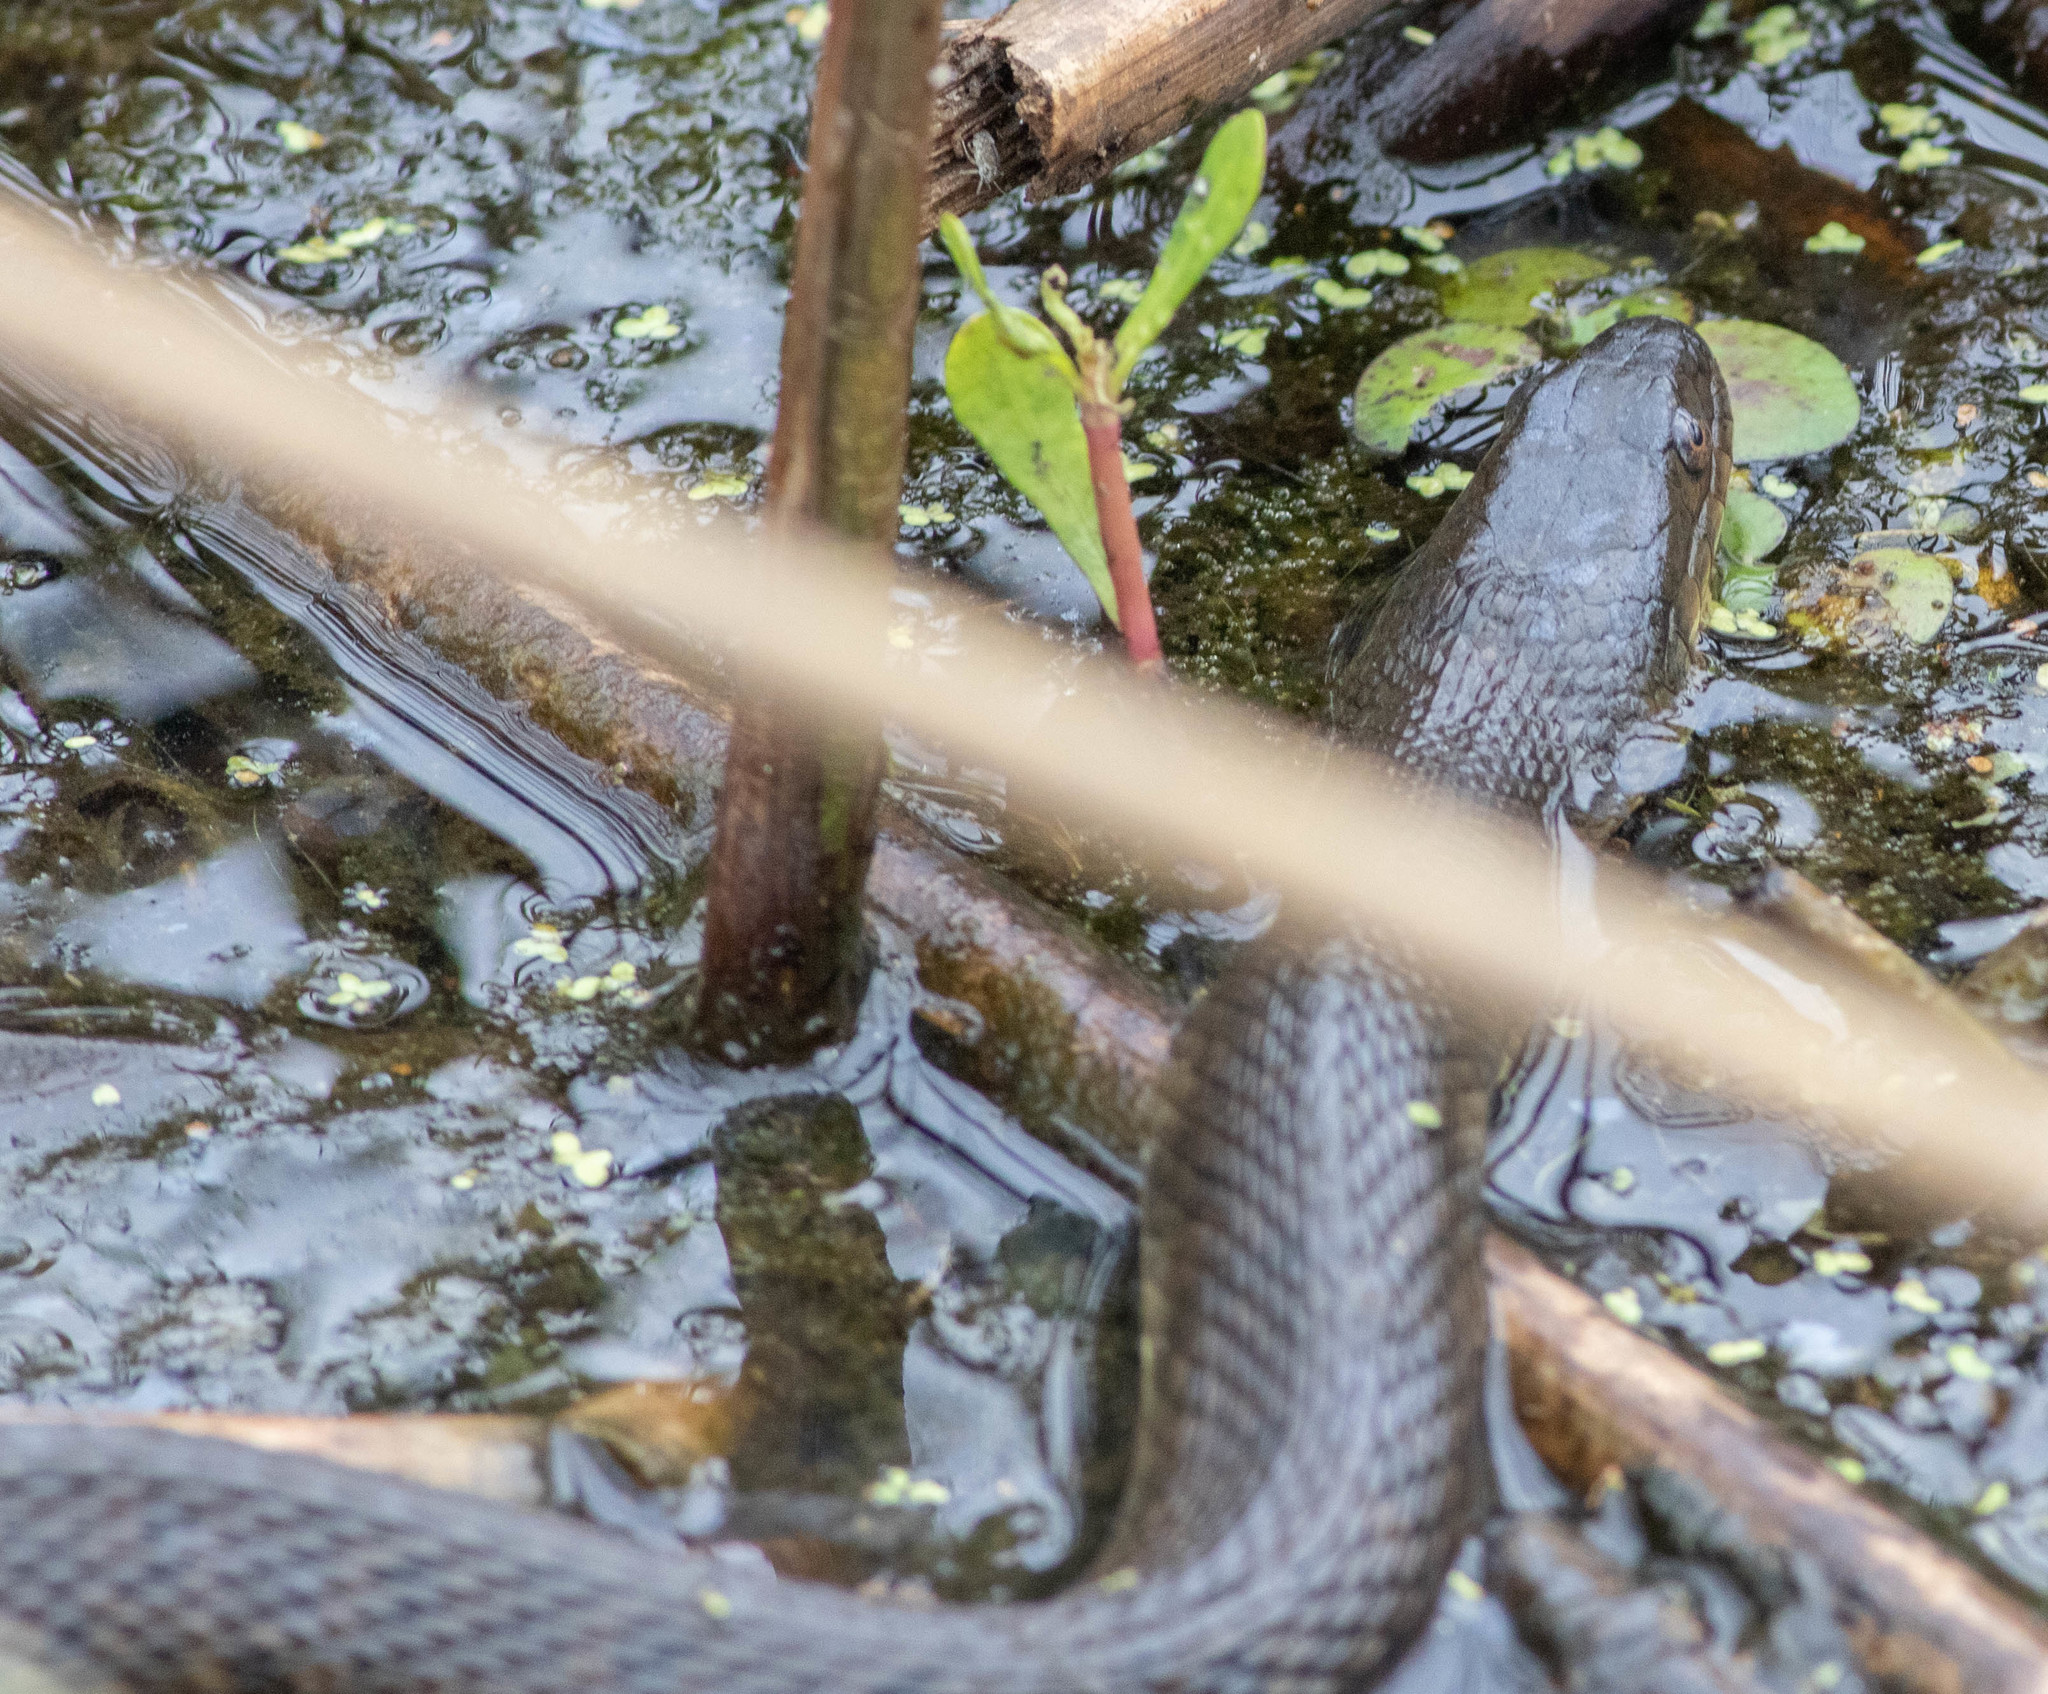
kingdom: Animalia
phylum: Chordata
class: Squamata
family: Colubridae
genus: Nerodia
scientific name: Nerodia cyclopion
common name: Mississippi green water snake
